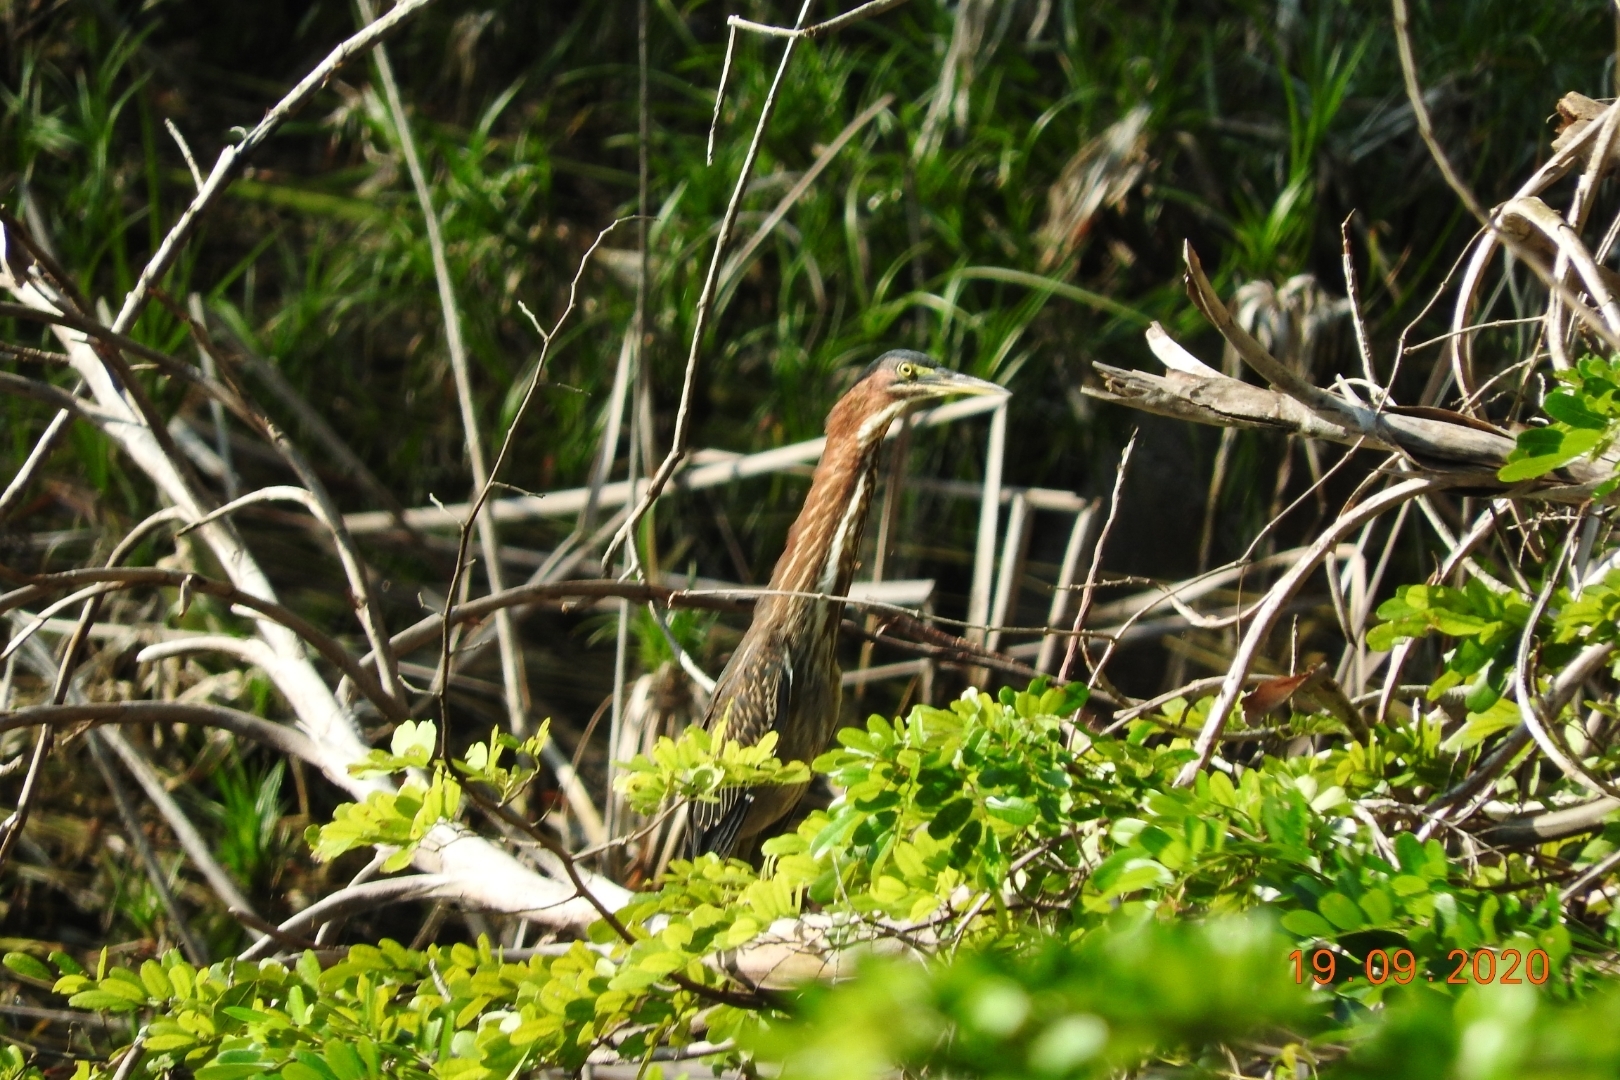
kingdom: Animalia
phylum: Chordata
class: Aves
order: Pelecaniformes
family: Ardeidae
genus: Butorides
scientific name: Butorides virescens
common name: Green heron
